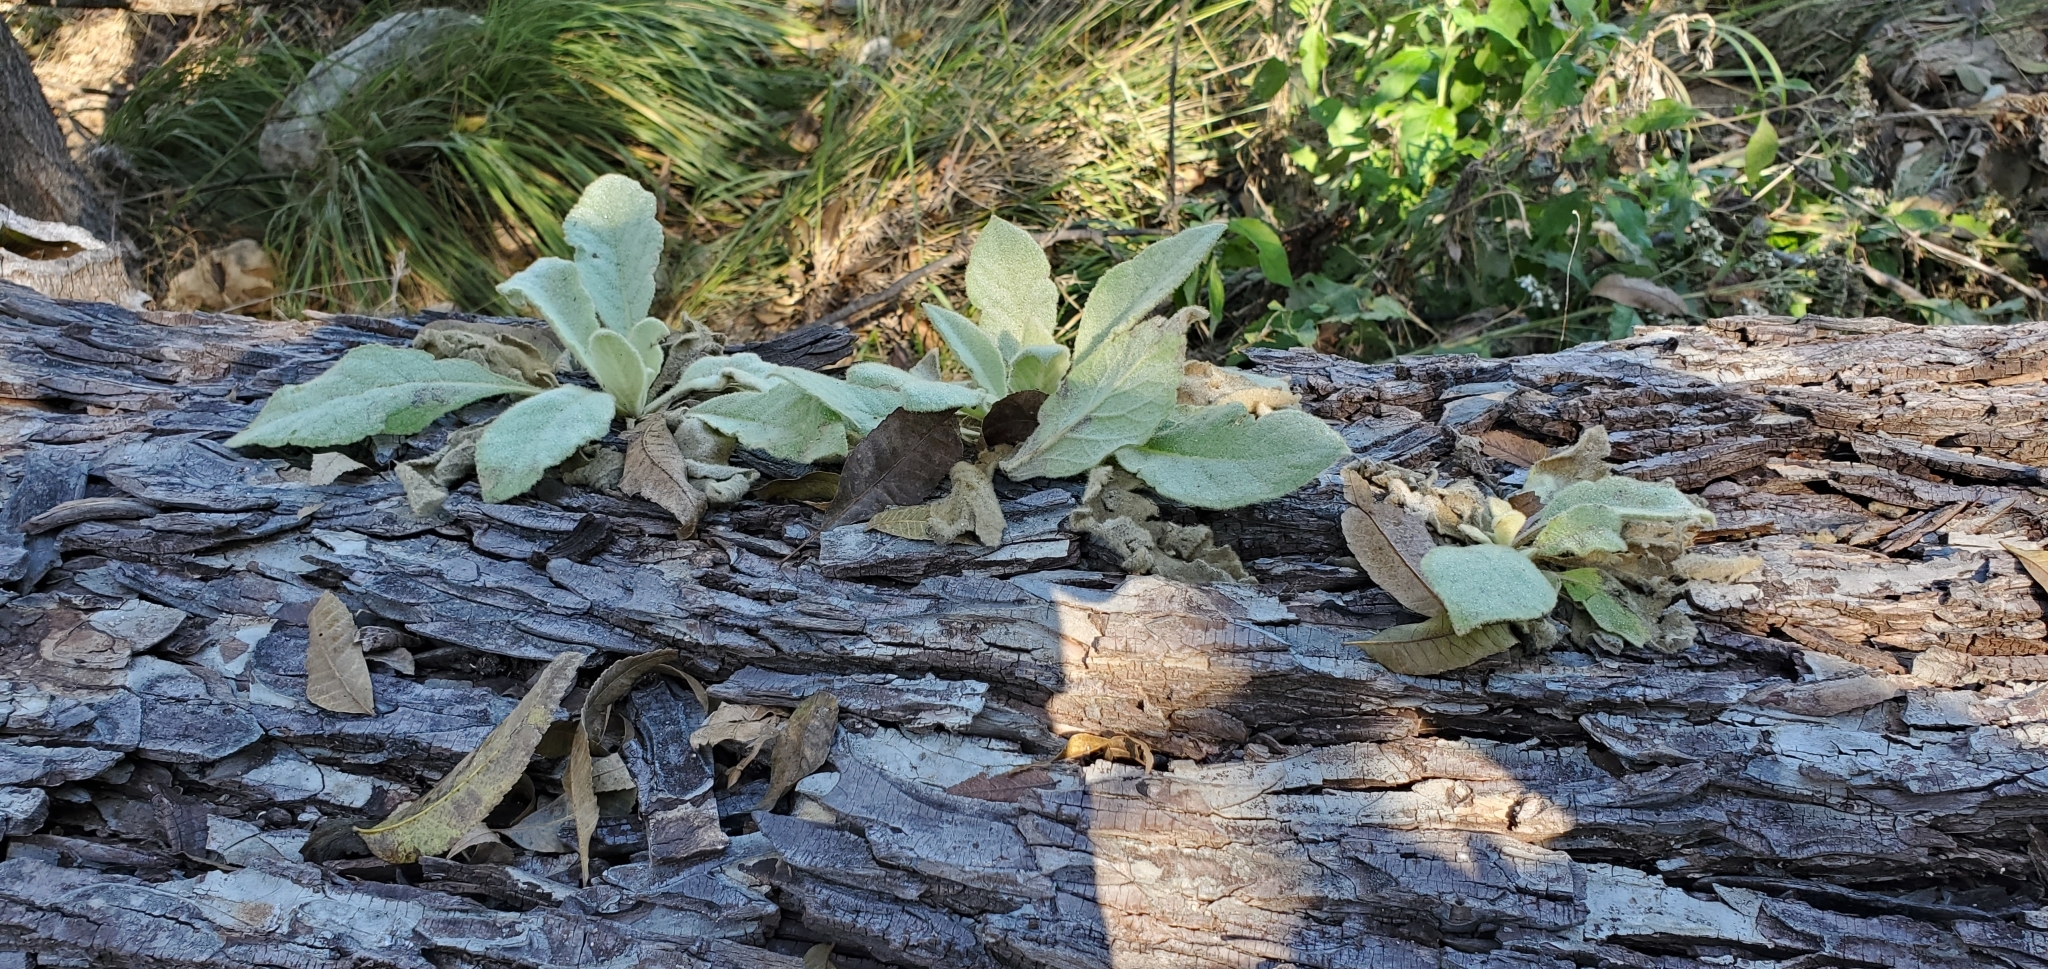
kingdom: Plantae
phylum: Tracheophyta
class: Magnoliopsida
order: Lamiales
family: Scrophulariaceae
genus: Verbascum
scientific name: Verbascum thapsus
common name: Common mullein
